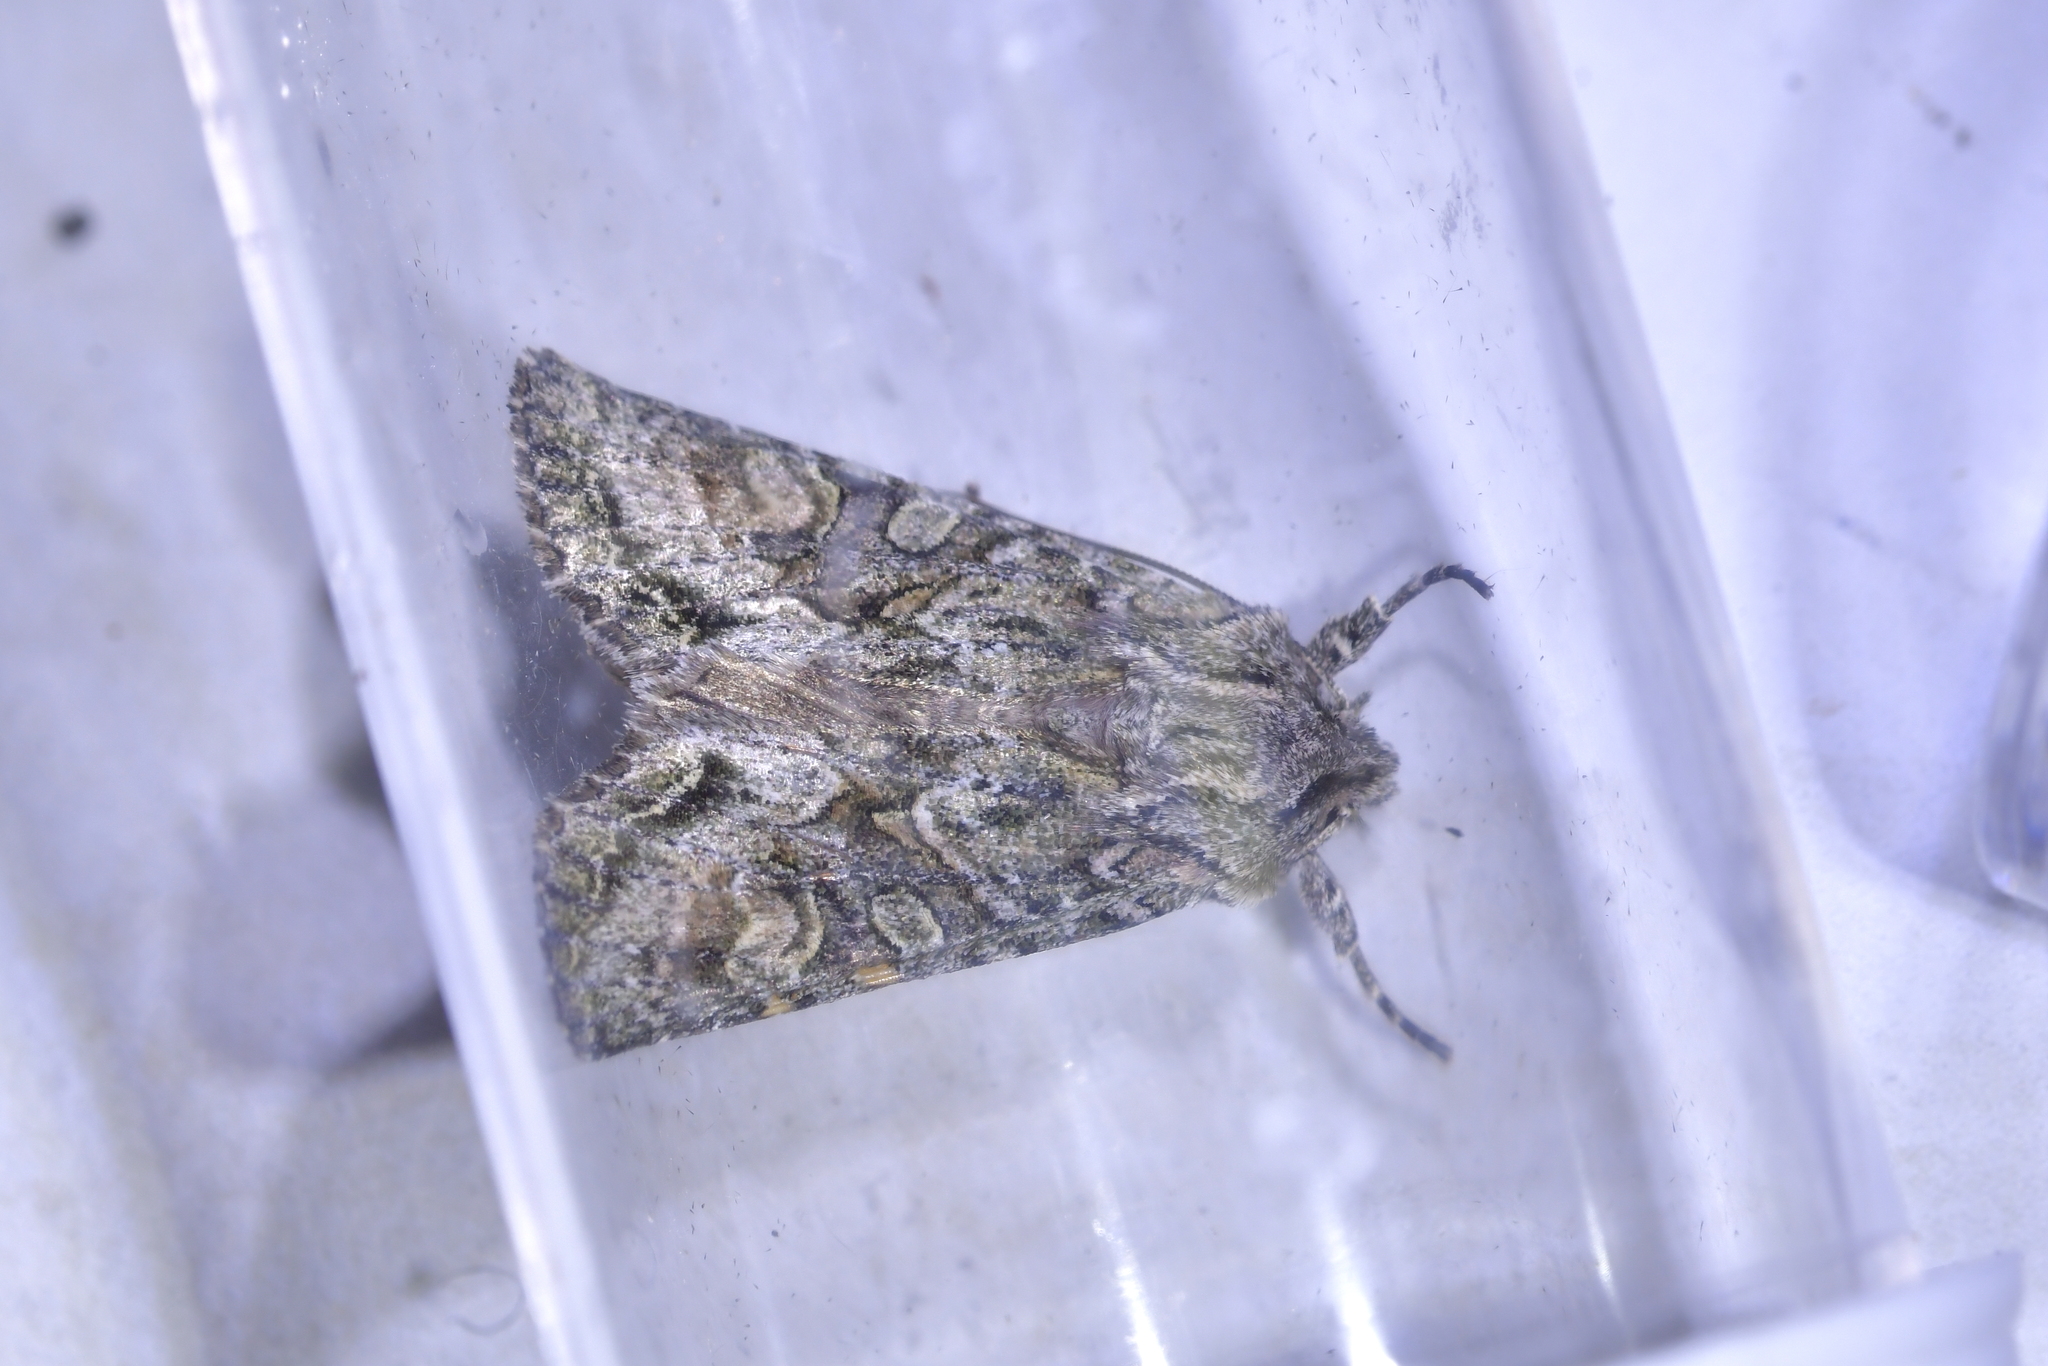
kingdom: Animalia
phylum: Arthropoda
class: Insecta
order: Lepidoptera
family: Noctuidae
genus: Ichneutica
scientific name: Ichneutica mutans
